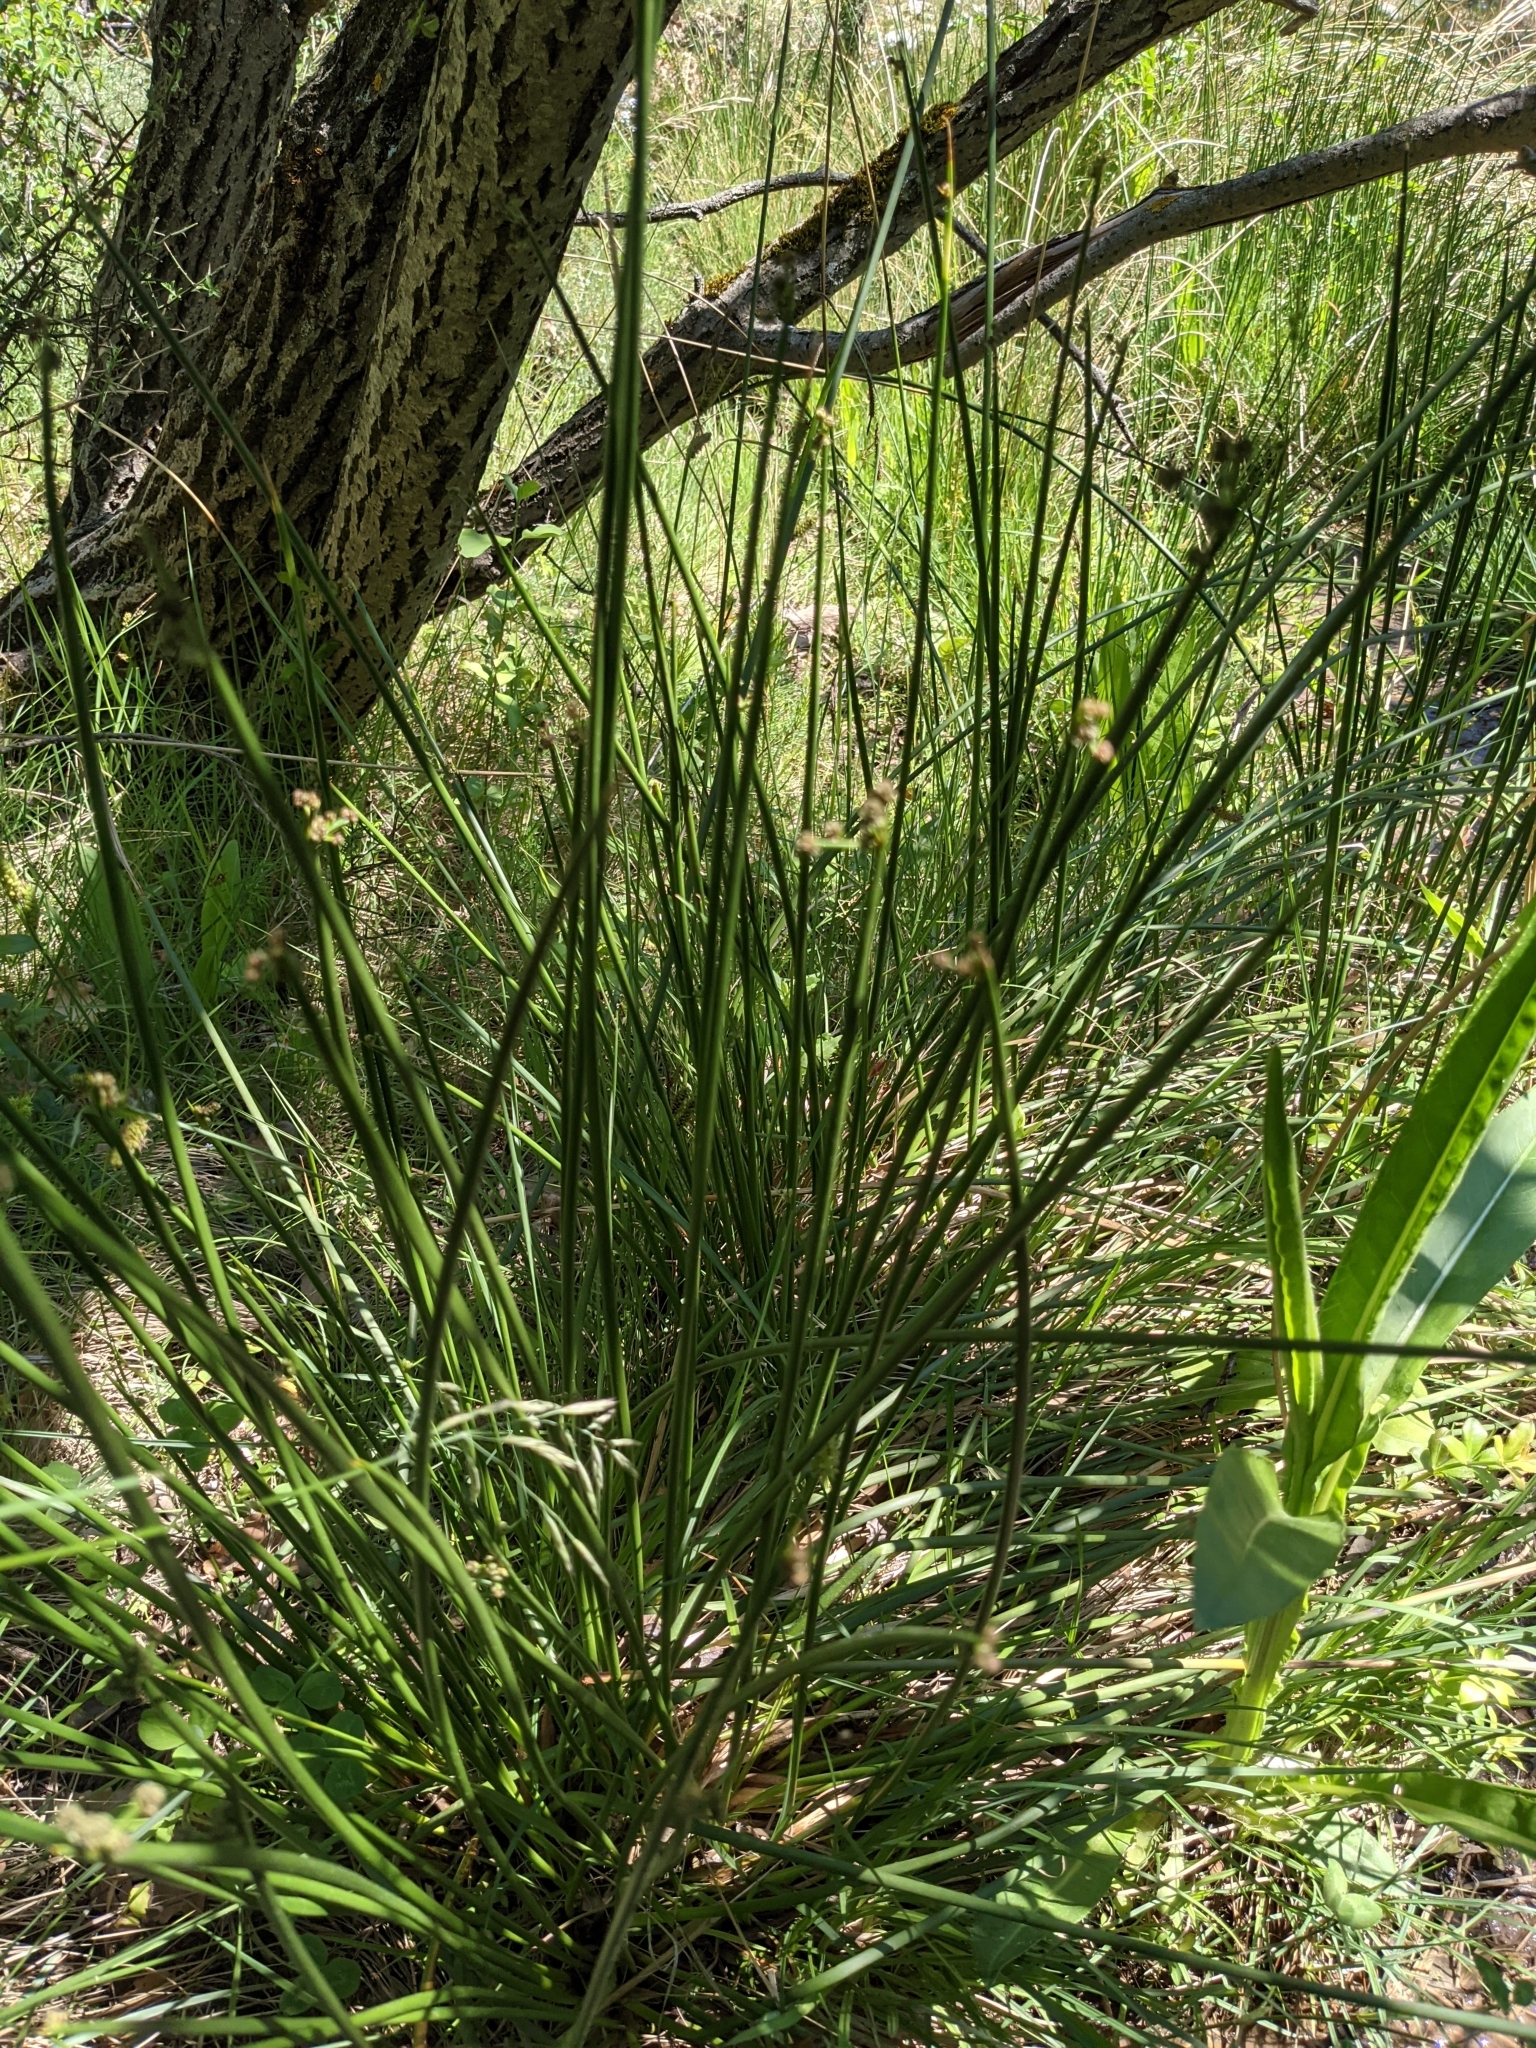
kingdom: Plantae
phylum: Tracheophyta
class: Liliopsida
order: Poales
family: Cyperaceae
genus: Scirpoides
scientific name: Scirpoides holoschoenus
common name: Round-headed club-rush
